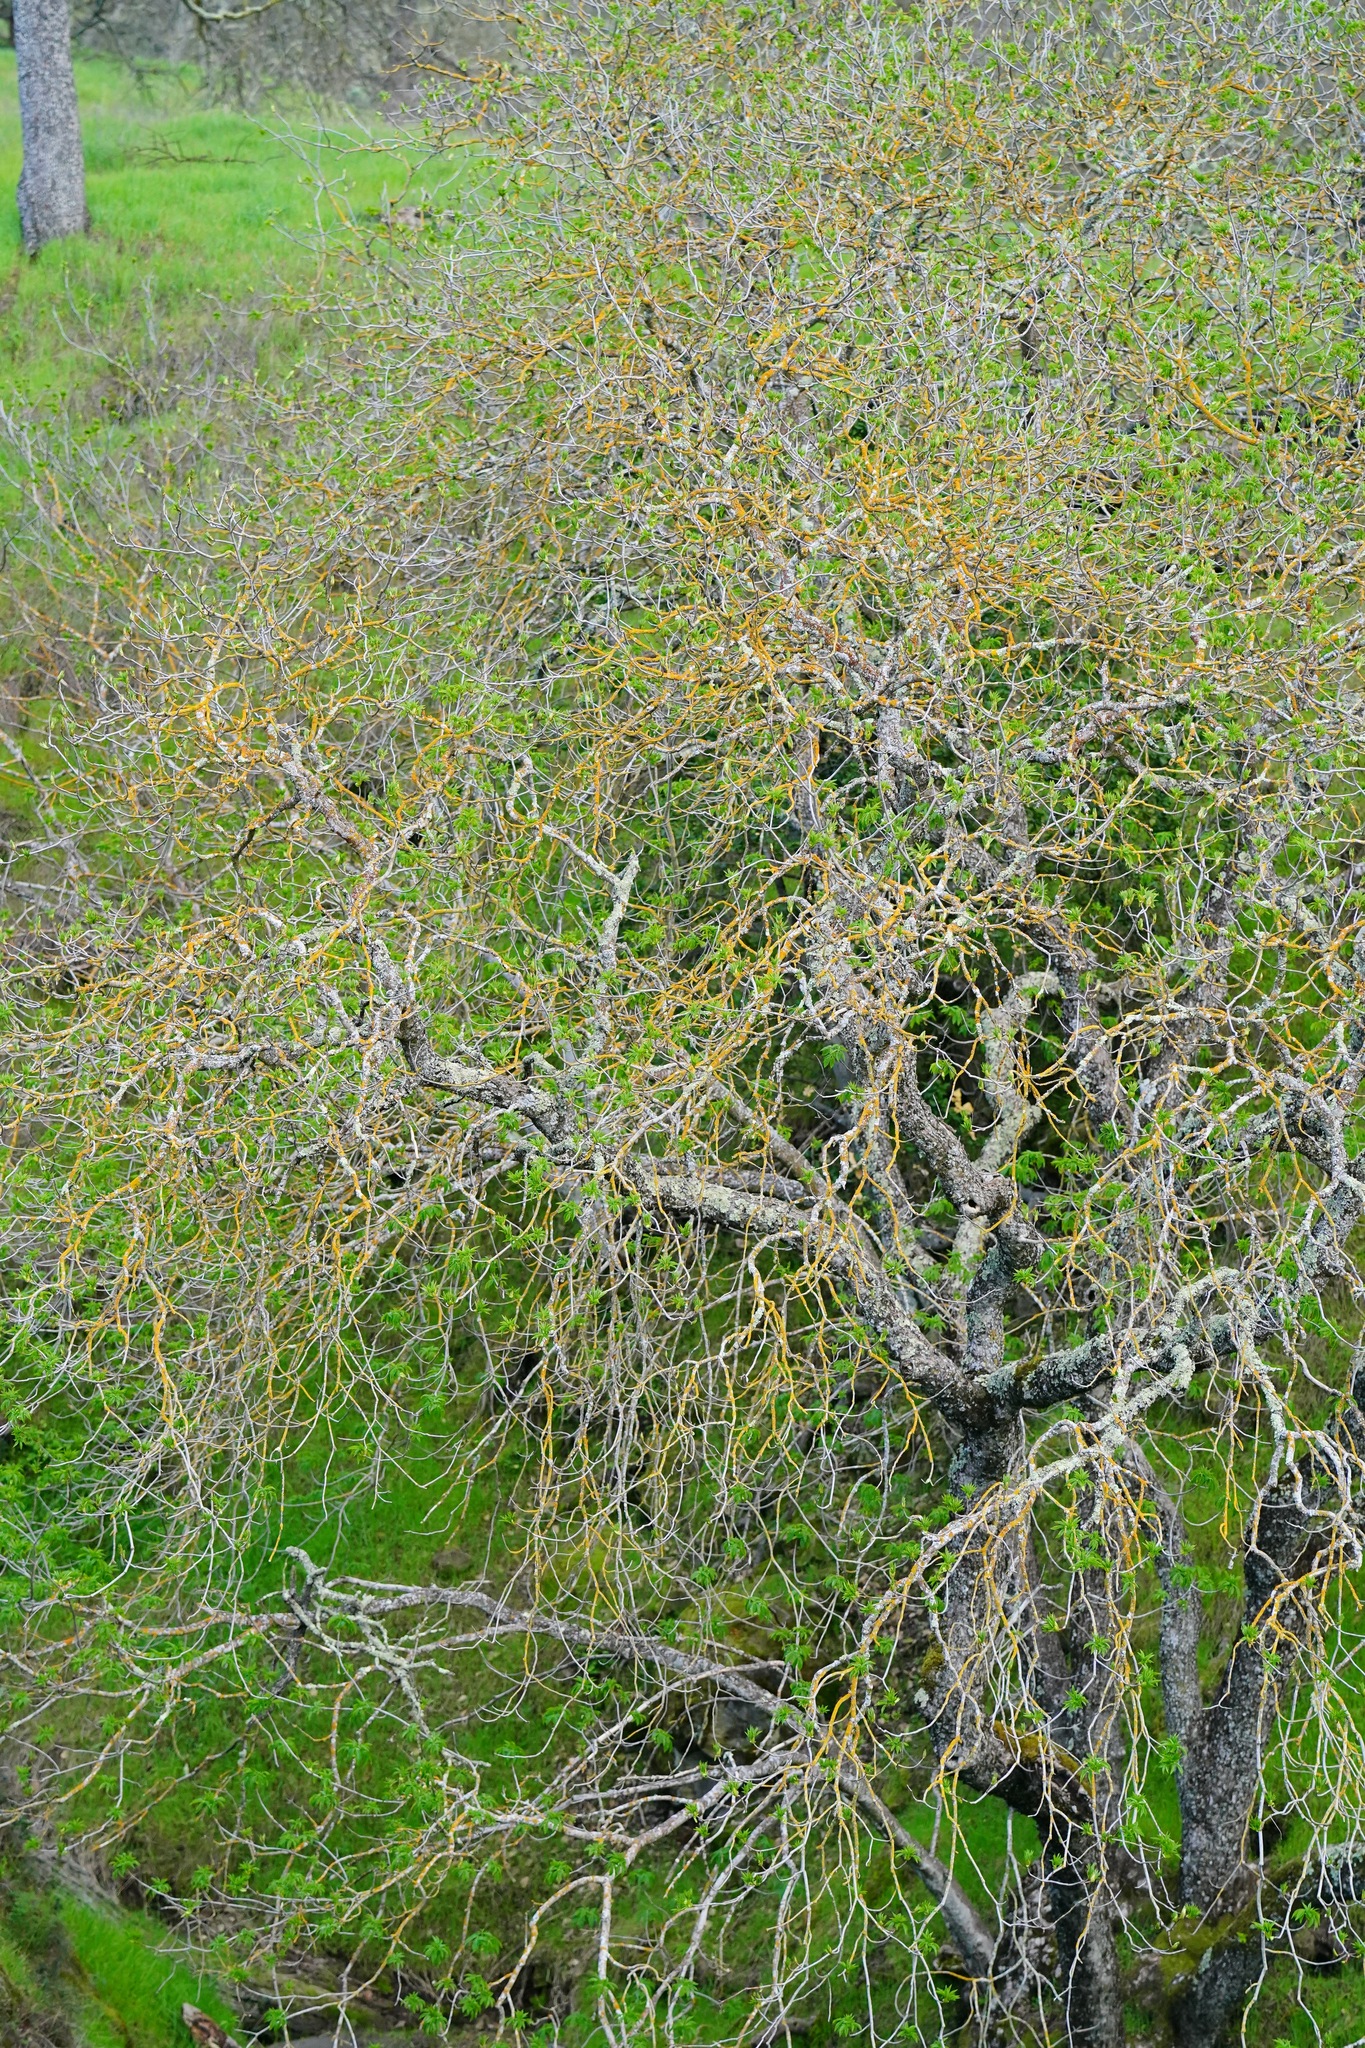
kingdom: Plantae
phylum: Tracheophyta
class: Magnoliopsida
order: Sapindales
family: Sapindaceae
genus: Aesculus
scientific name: Aesculus californica
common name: California buckeye
